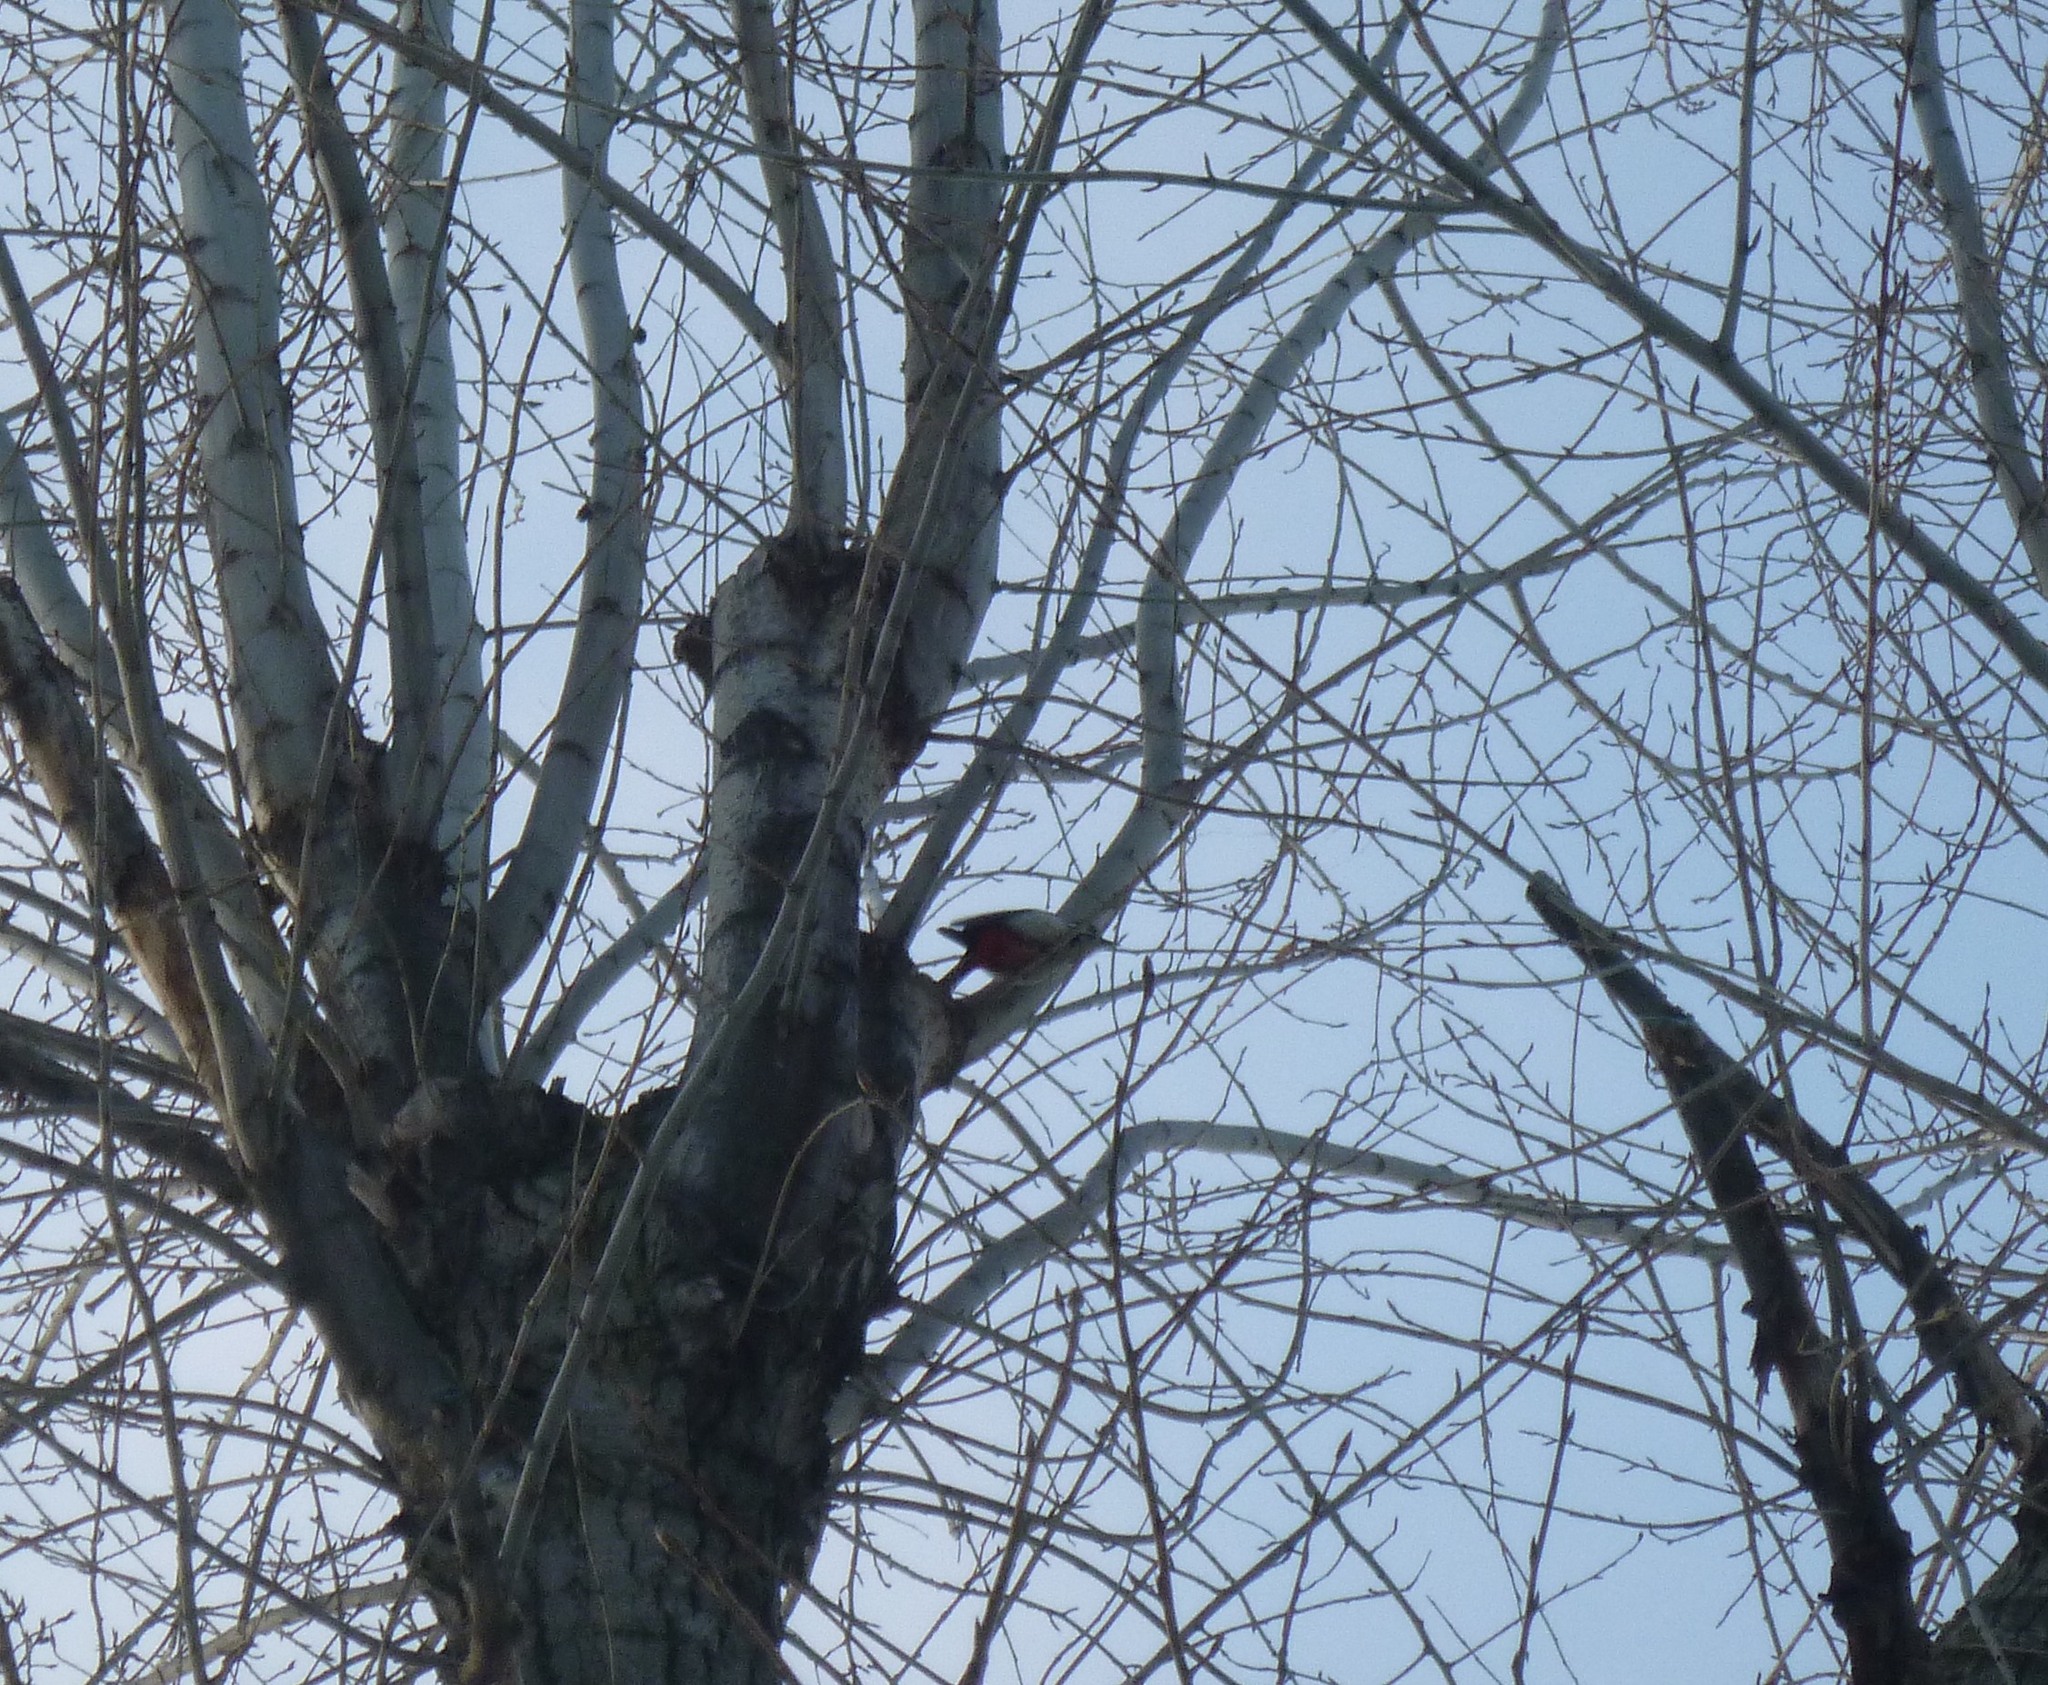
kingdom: Animalia
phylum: Chordata
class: Aves
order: Piciformes
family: Picidae
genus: Dendrocopos
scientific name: Dendrocopos major
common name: Great spotted woodpecker
